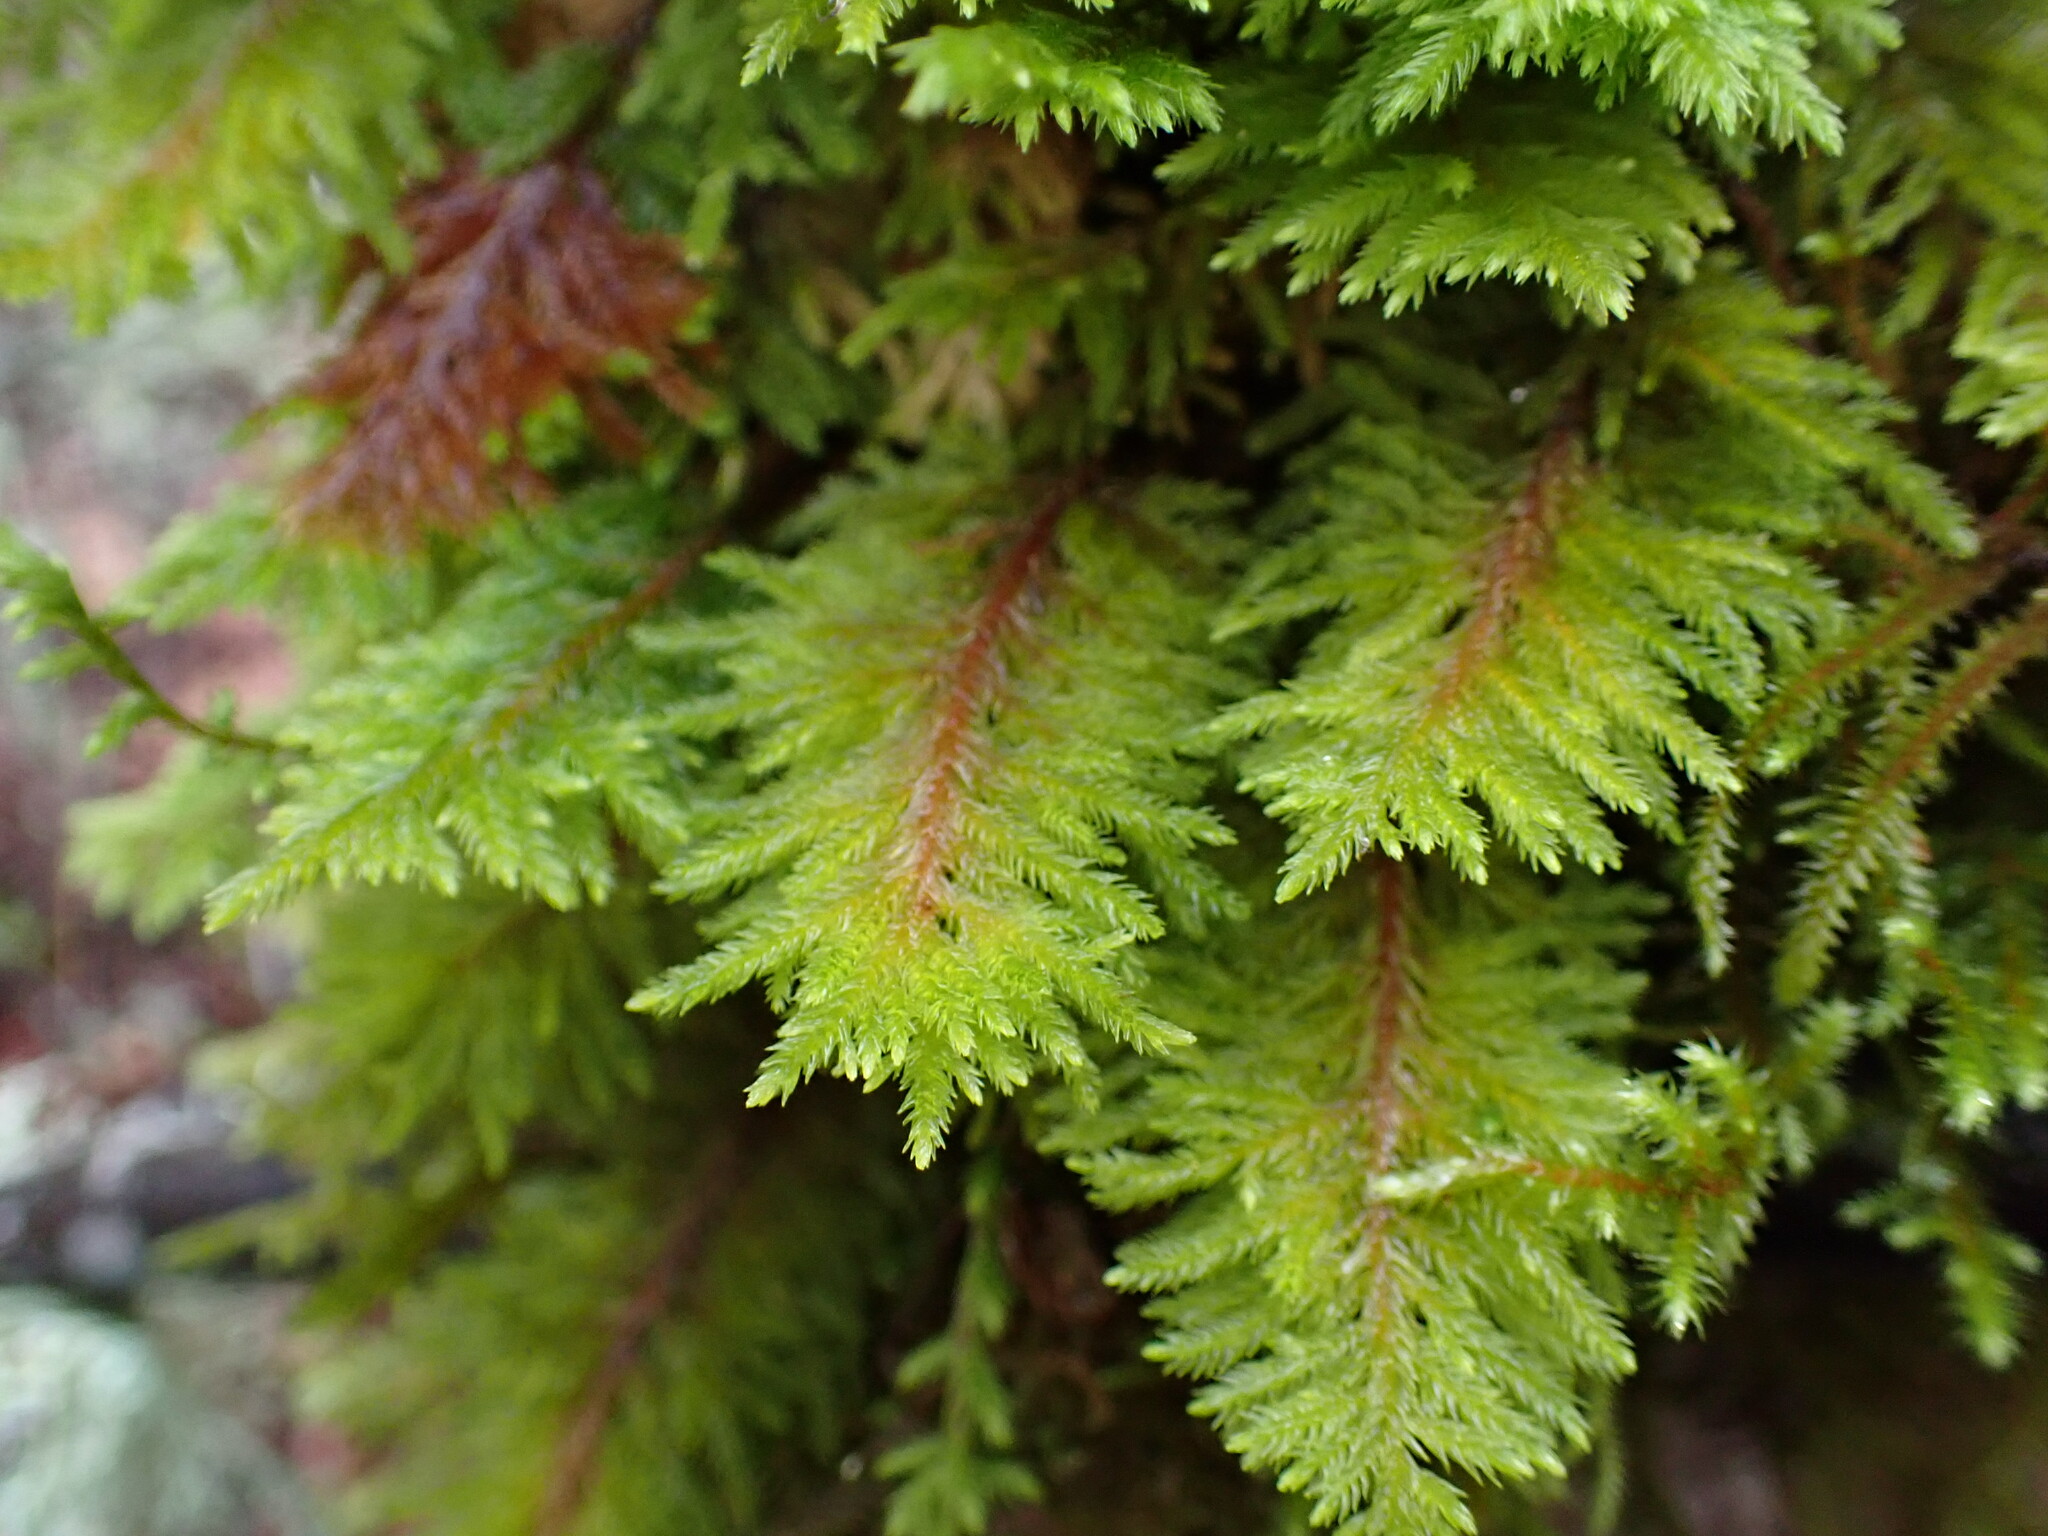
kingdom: Plantae
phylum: Bryophyta
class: Bryopsida
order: Hypnales
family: Cryphaeaceae
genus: Dendroalsia
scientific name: Dendroalsia abietina
